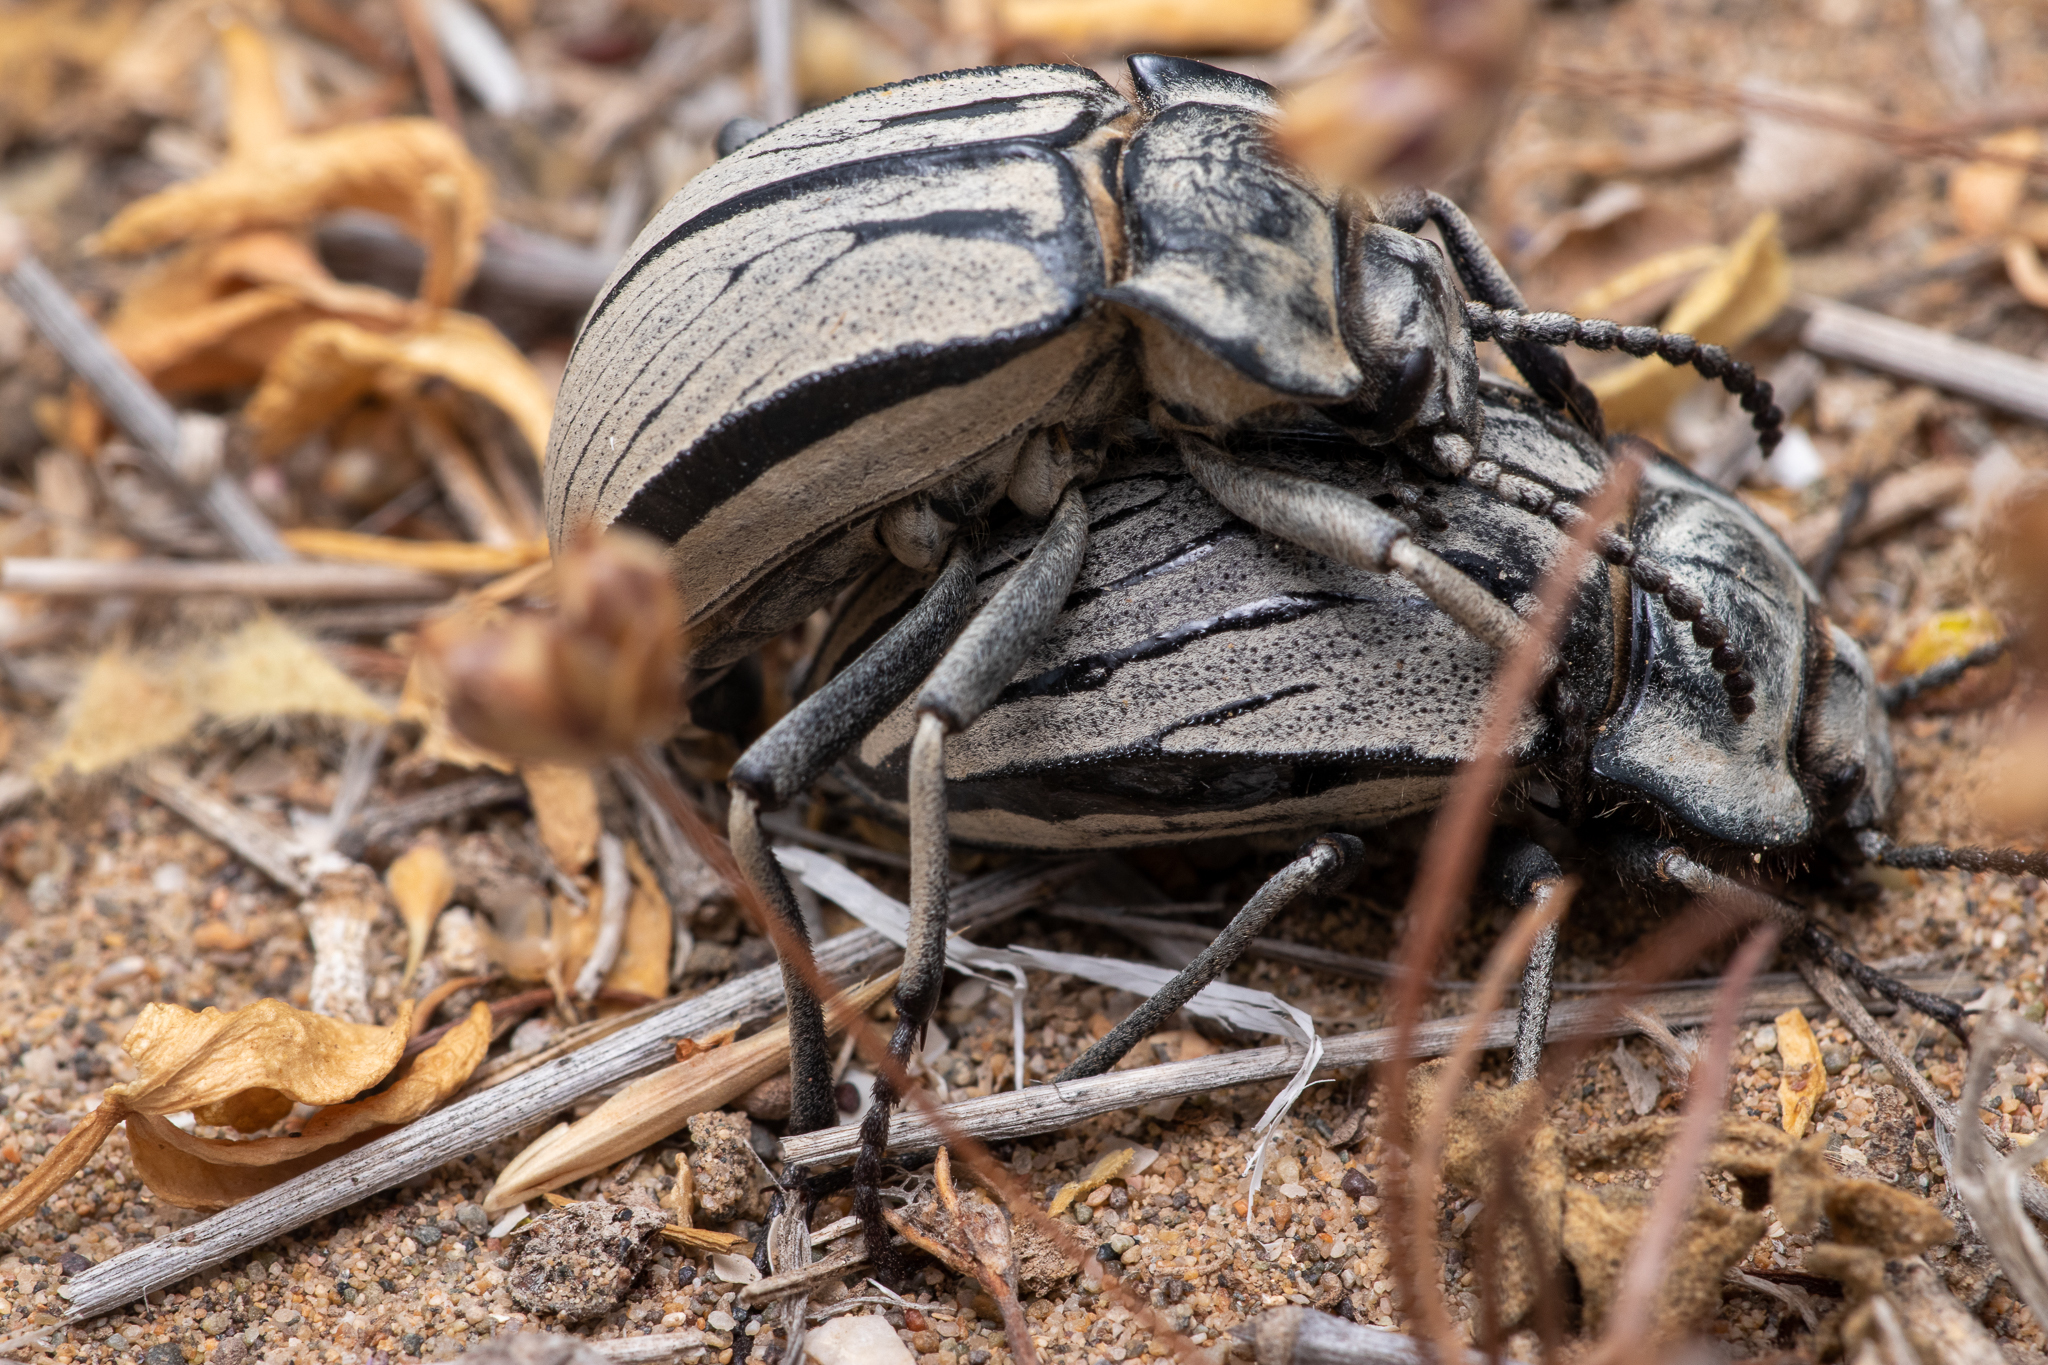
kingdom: Animalia
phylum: Arthropoda
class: Insecta
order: Coleoptera
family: Tenebrionidae
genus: Gyriosomus
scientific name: Gyriosomus
